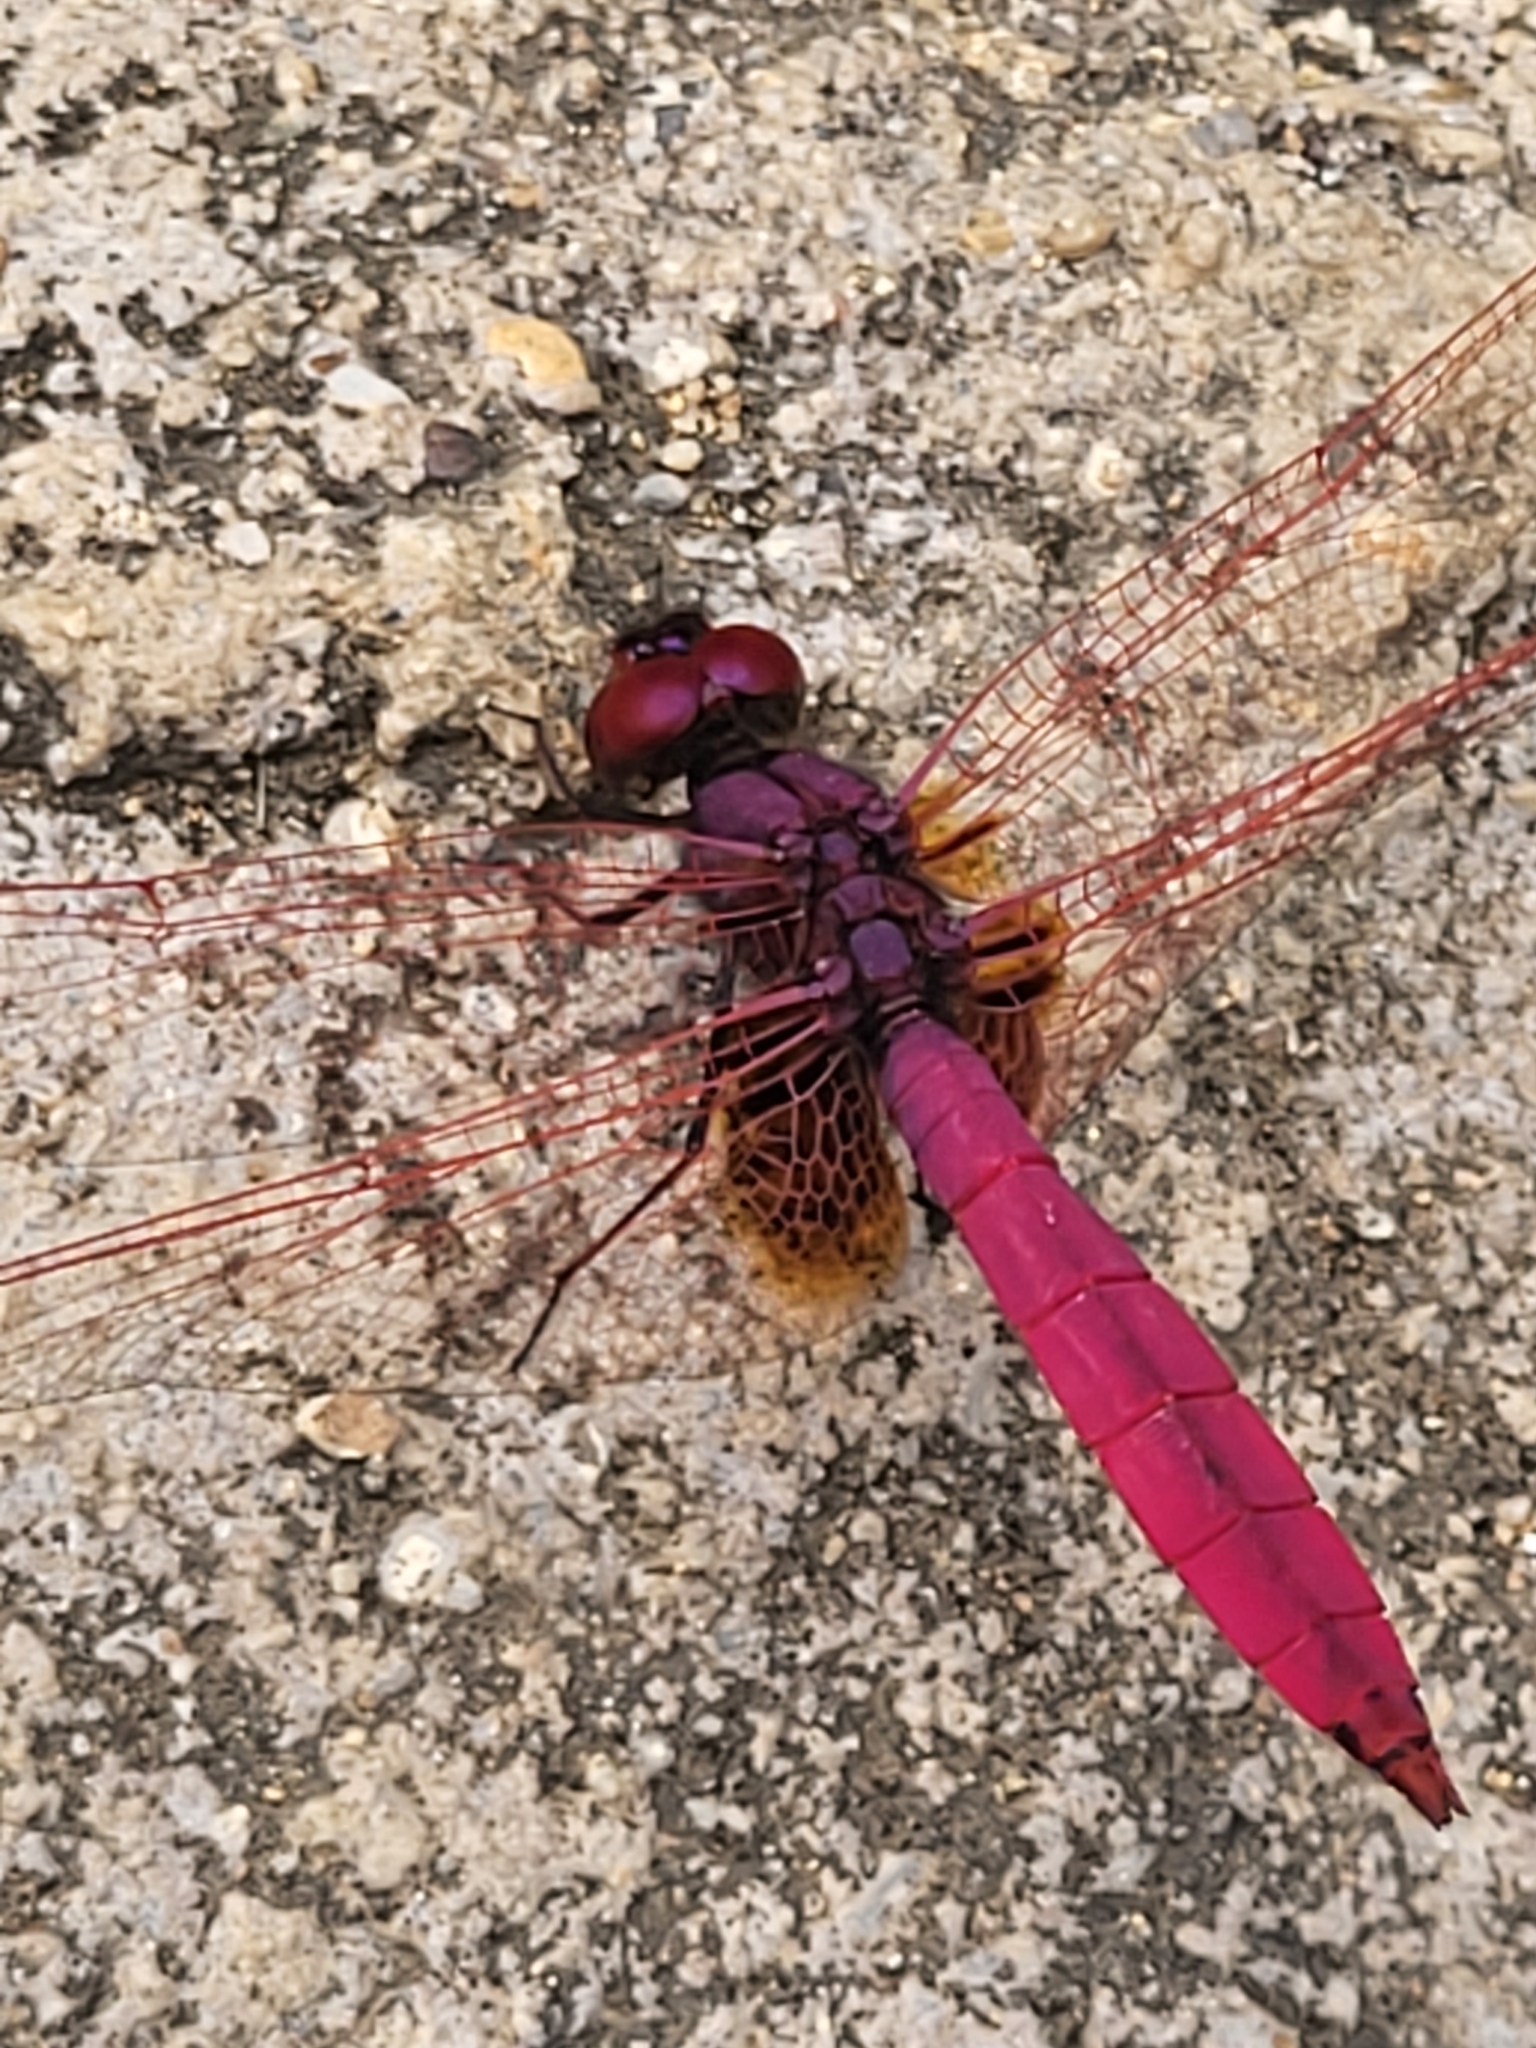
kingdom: Animalia
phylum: Arthropoda
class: Insecta
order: Odonata
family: Libellulidae
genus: Trithemis
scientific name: Trithemis aurora
